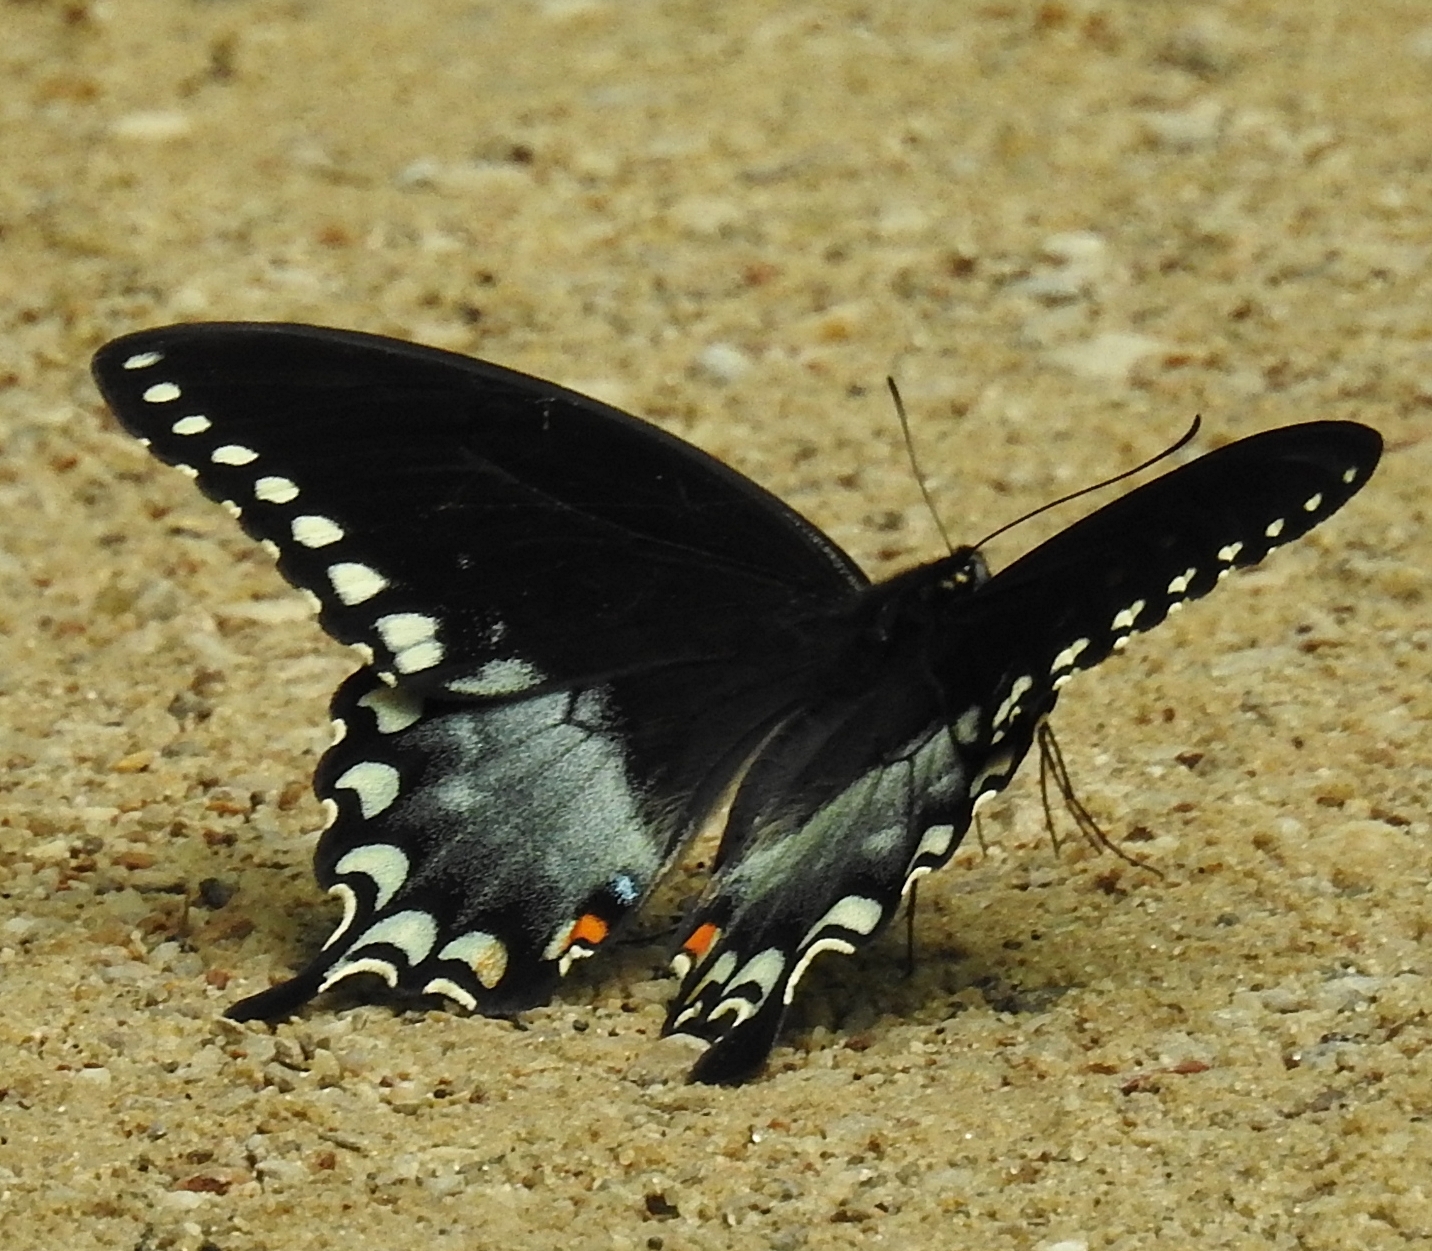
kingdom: Animalia
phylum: Arthropoda
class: Insecta
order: Lepidoptera
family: Papilionidae
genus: Papilio
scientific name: Papilio troilus
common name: Spicebush swallowtail
